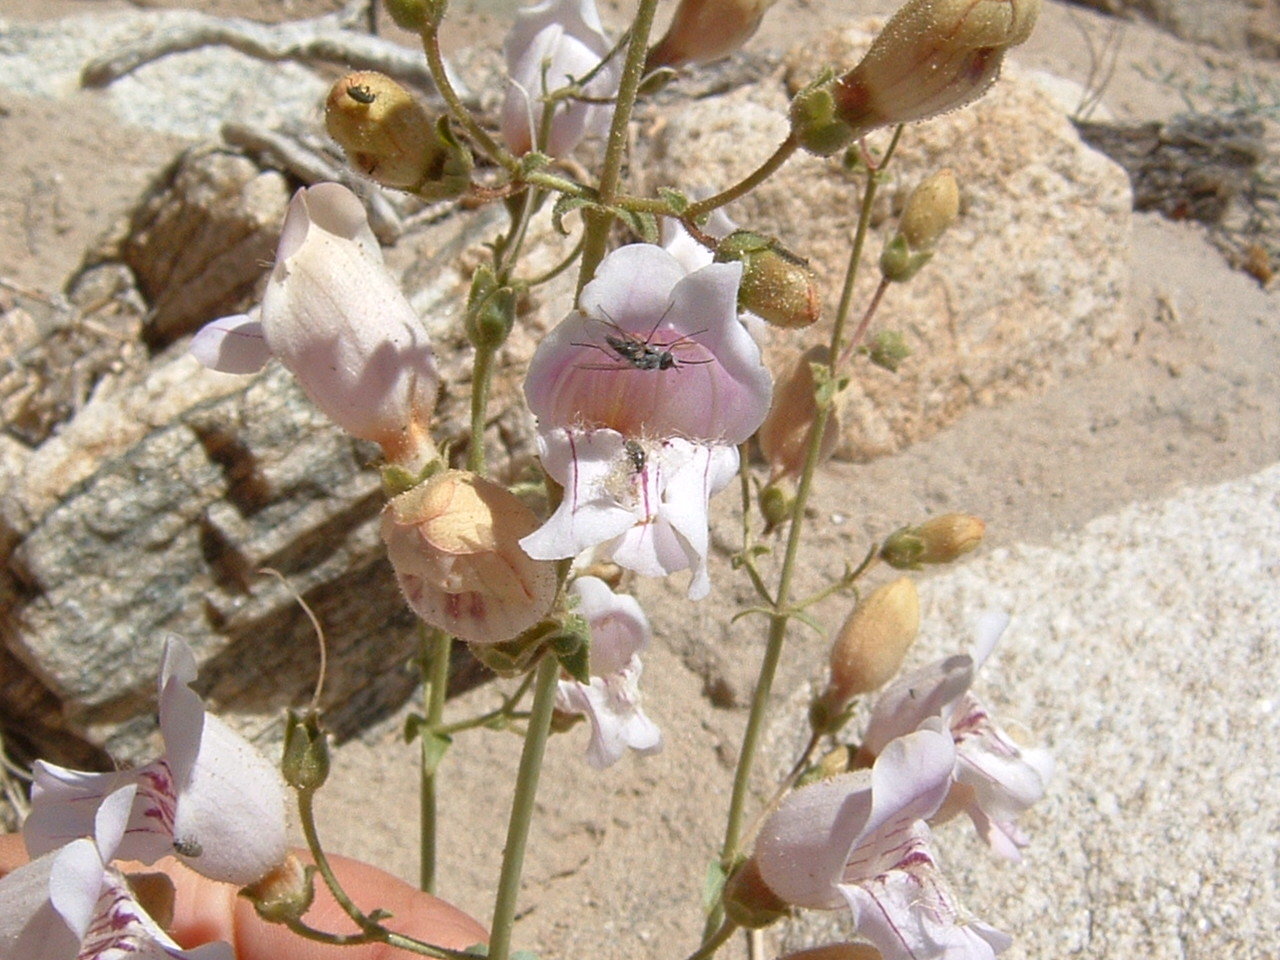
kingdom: Plantae
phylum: Tracheophyta
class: Magnoliopsida
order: Lamiales
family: Plantaginaceae
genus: Penstemon
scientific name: Penstemon grinnellii
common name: Grinnell's beardtongue
